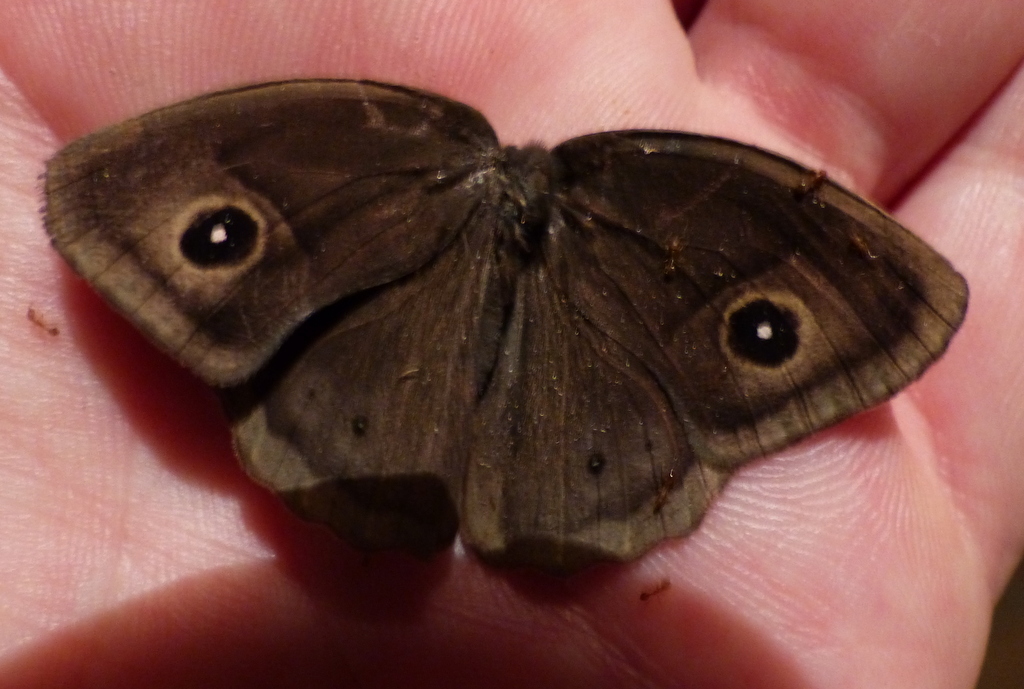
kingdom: Animalia
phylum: Arthropoda
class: Insecta
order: Lepidoptera
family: Nymphalidae
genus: Mycalesis
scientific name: Mycalesis gotama
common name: Chinese bushbrown
